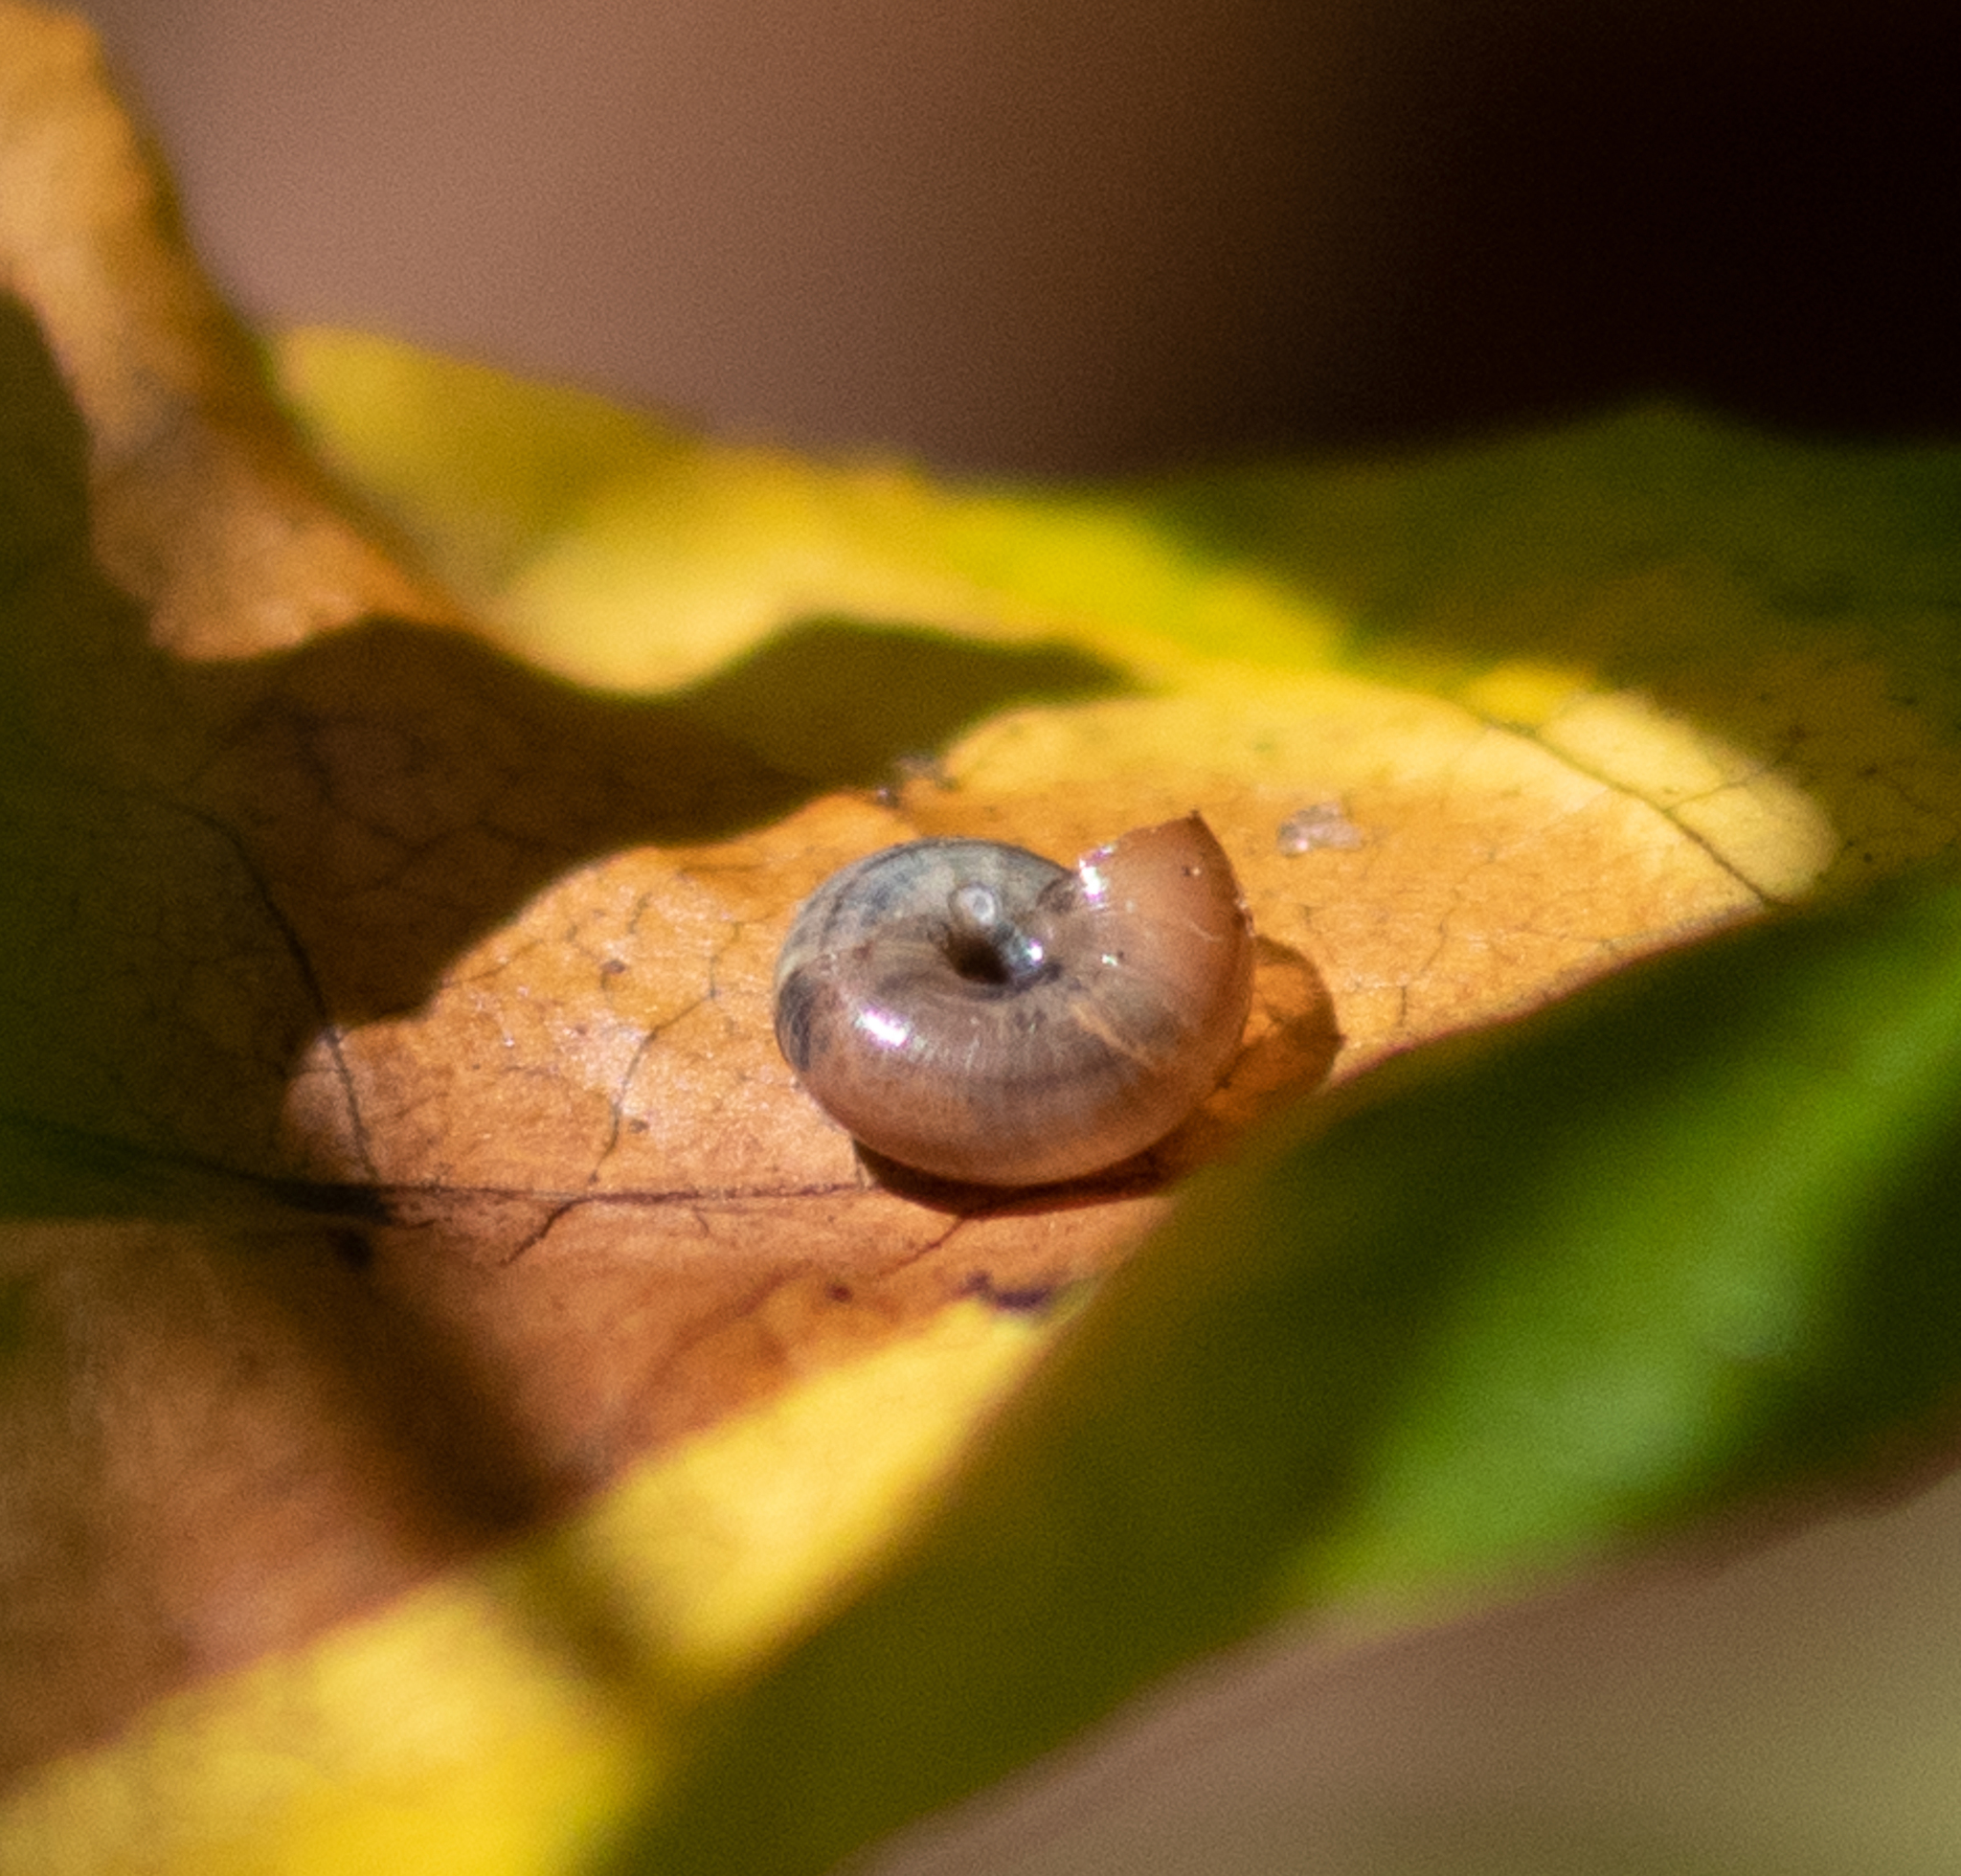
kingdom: Animalia
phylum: Mollusca
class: Gastropoda
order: Stylommatophora
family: Gastrodontidae
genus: Zonitoides
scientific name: Zonitoides arboreus
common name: Quick gloss
